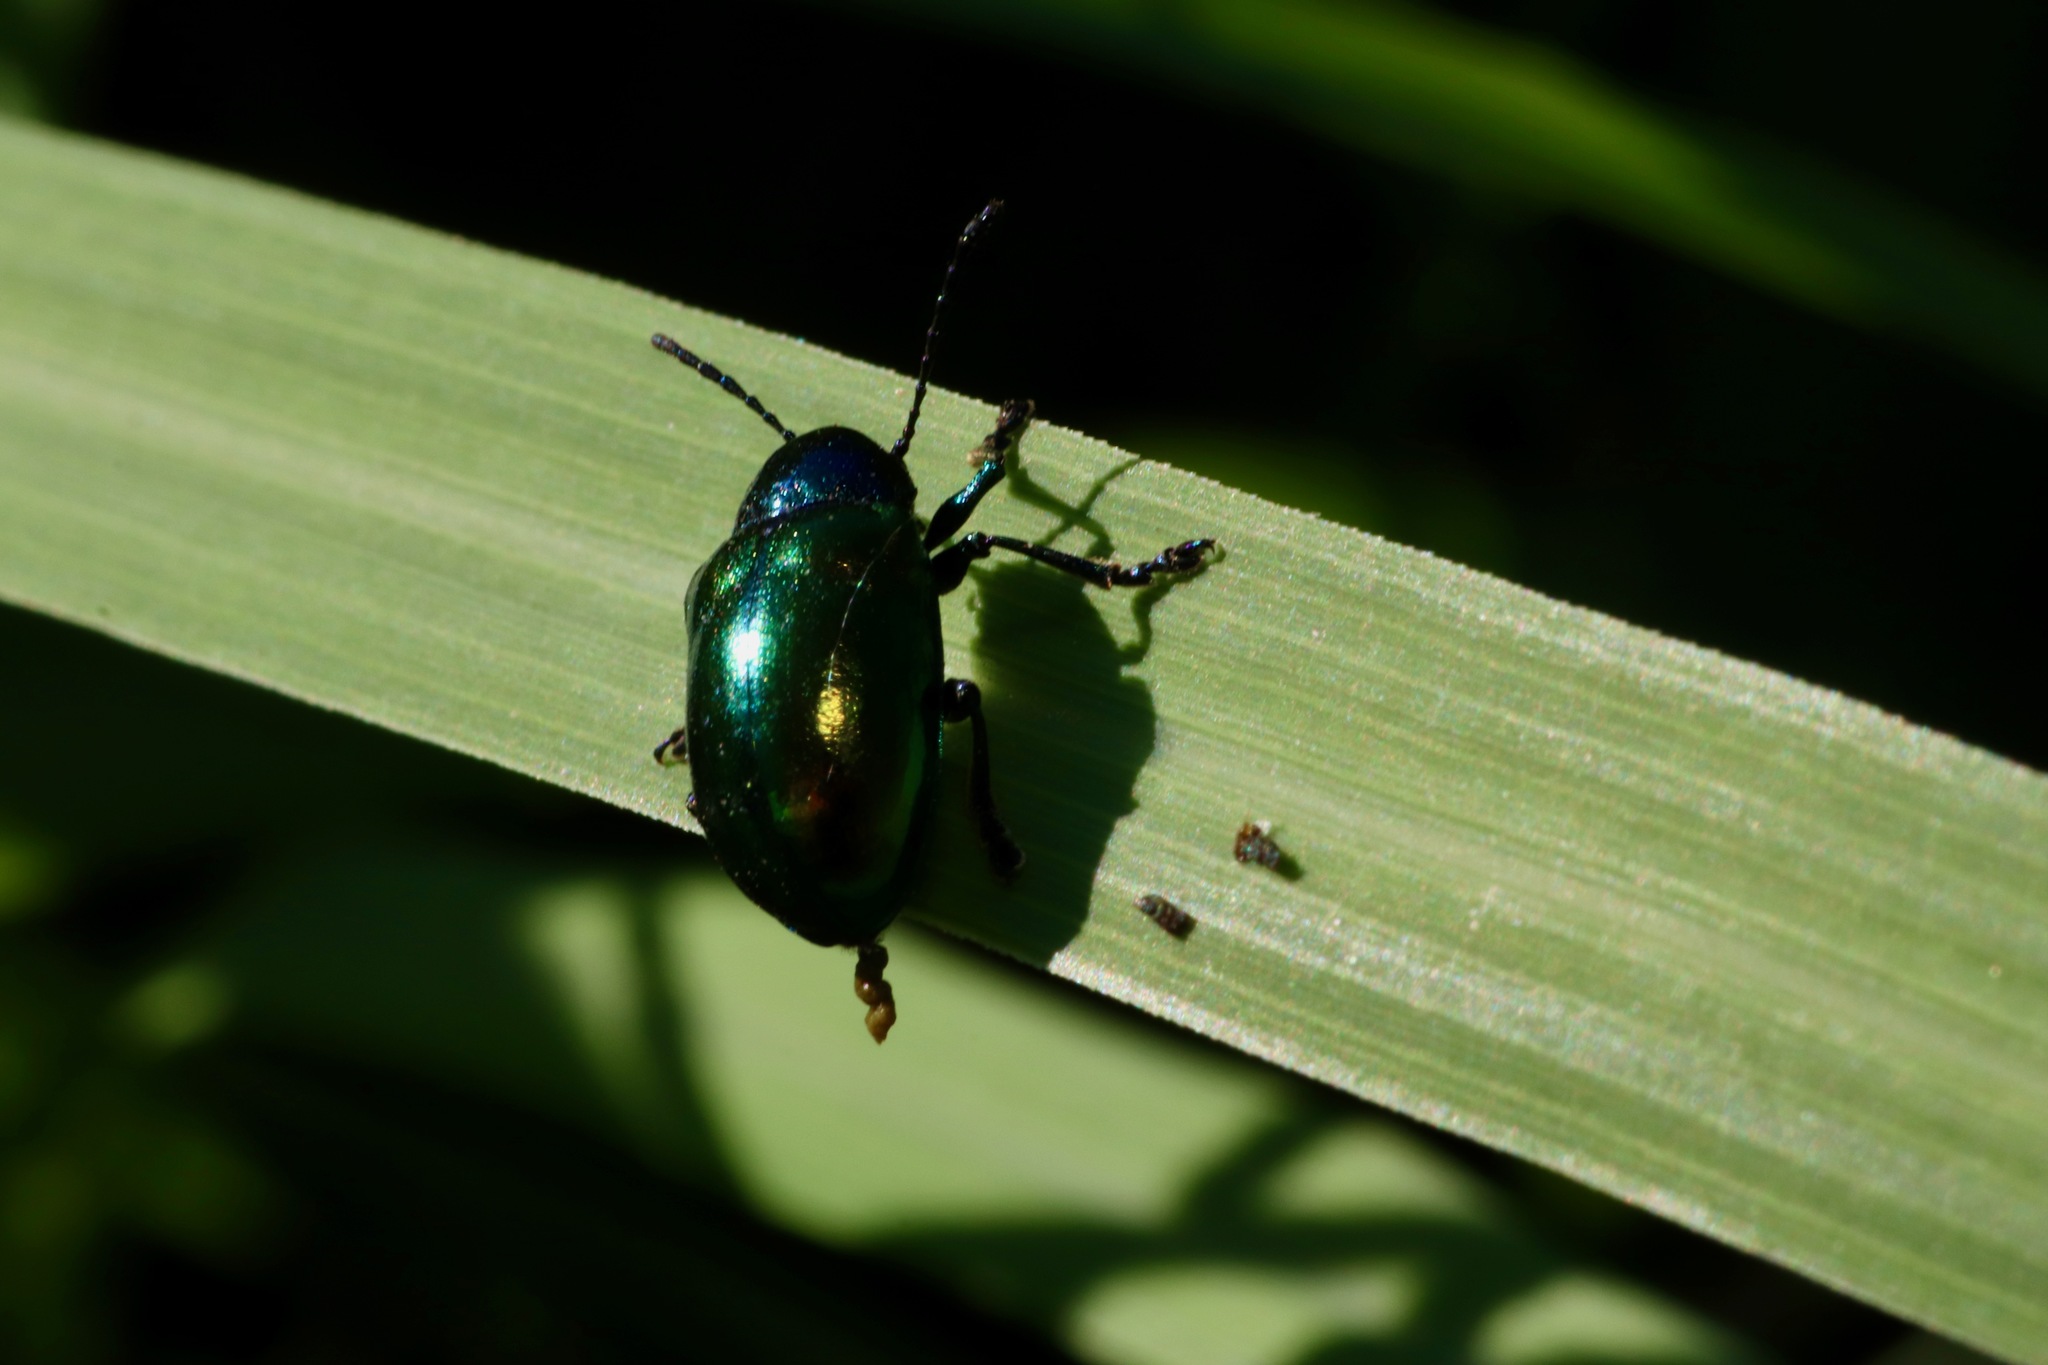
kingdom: Animalia
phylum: Arthropoda
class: Insecta
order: Coleoptera
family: Chrysomelidae
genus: Chrysochus
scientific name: Chrysochus auratus
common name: Dogbane leaf beetle
